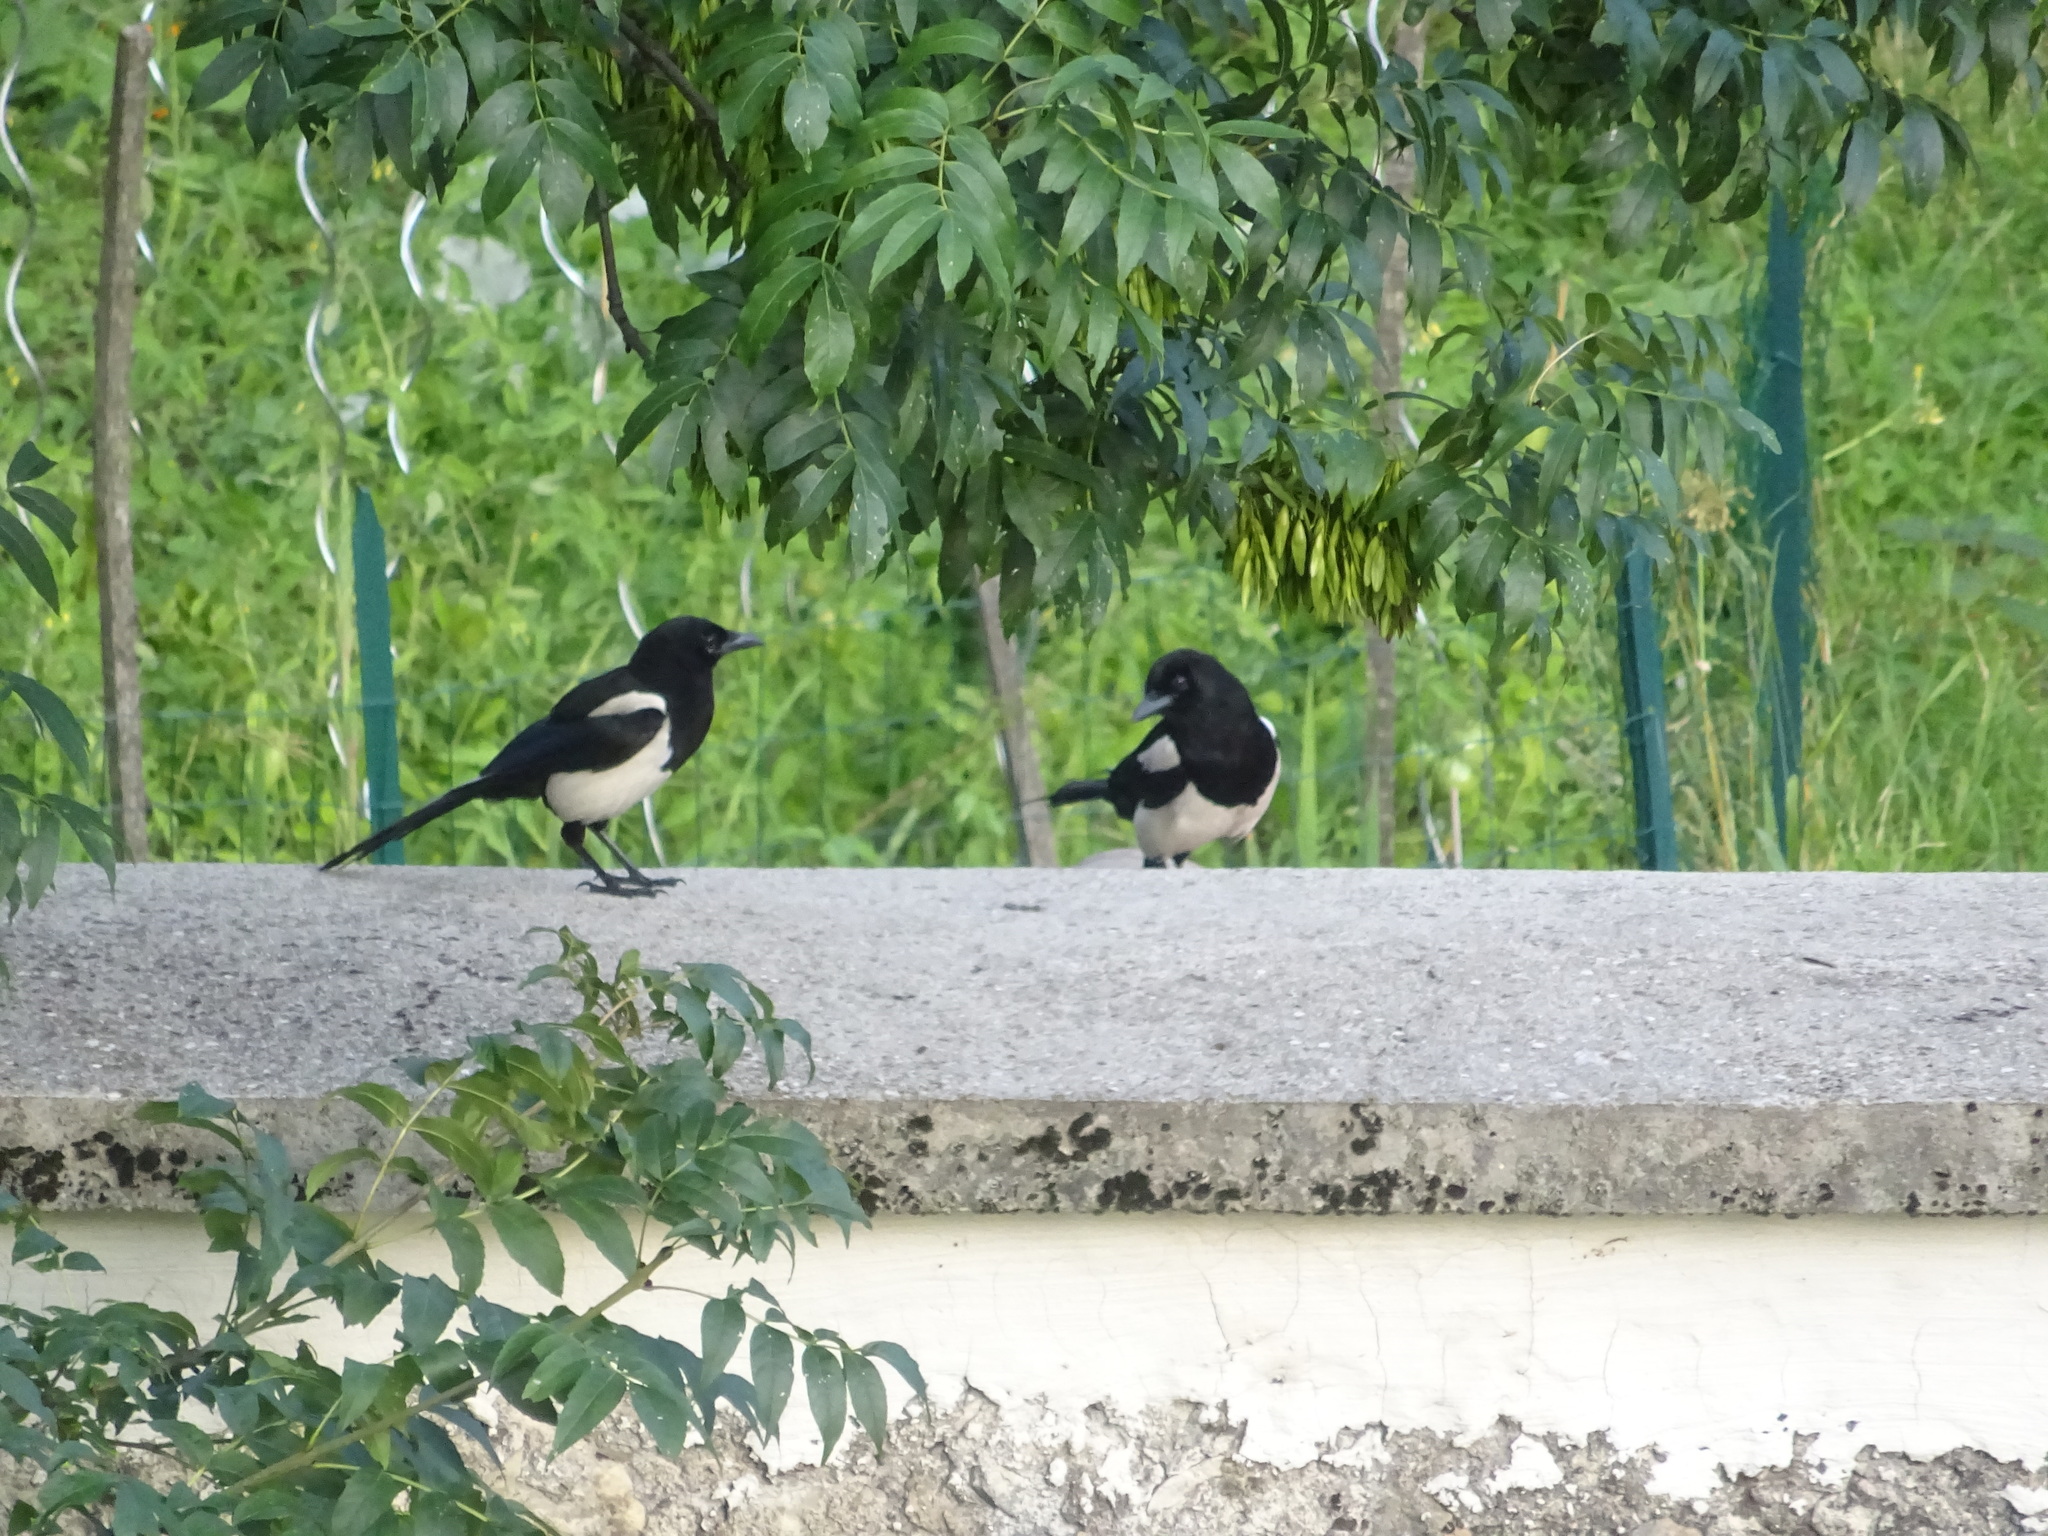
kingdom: Animalia
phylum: Chordata
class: Aves
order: Passeriformes
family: Corvidae
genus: Pica
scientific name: Pica pica
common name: Eurasian magpie
